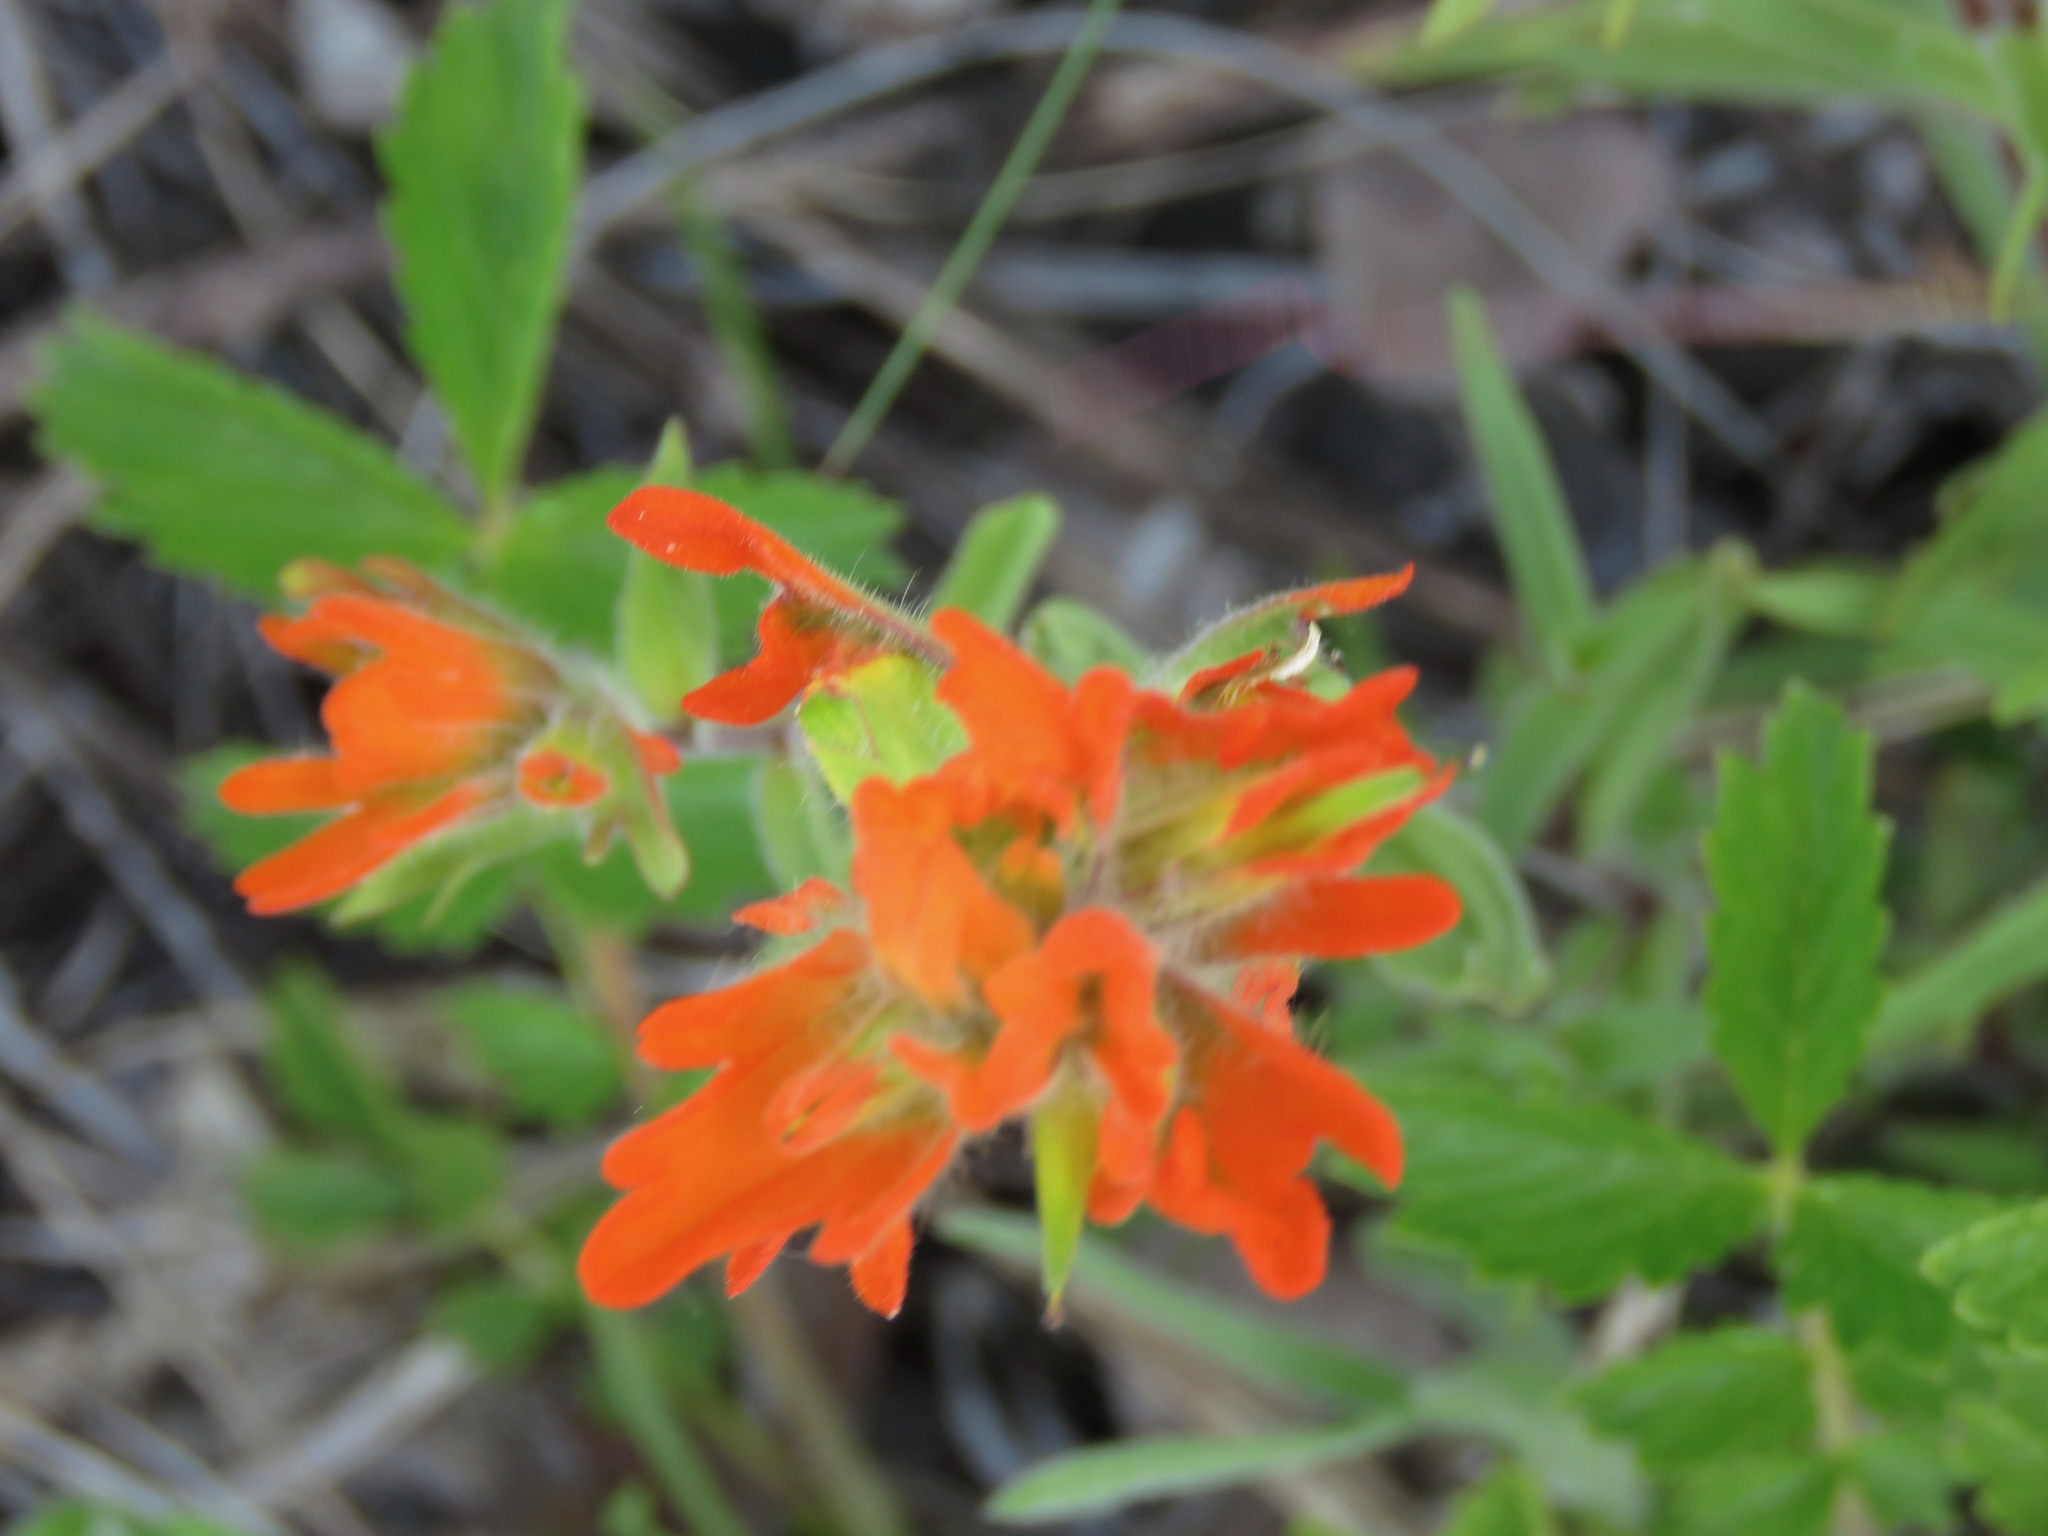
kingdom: Plantae
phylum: Tracheophyta
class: Magnoliopsida
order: Lamiales
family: Orobanchaceae
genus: Castilleja
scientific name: Castilleja hispida
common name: Bristly paintbrush
